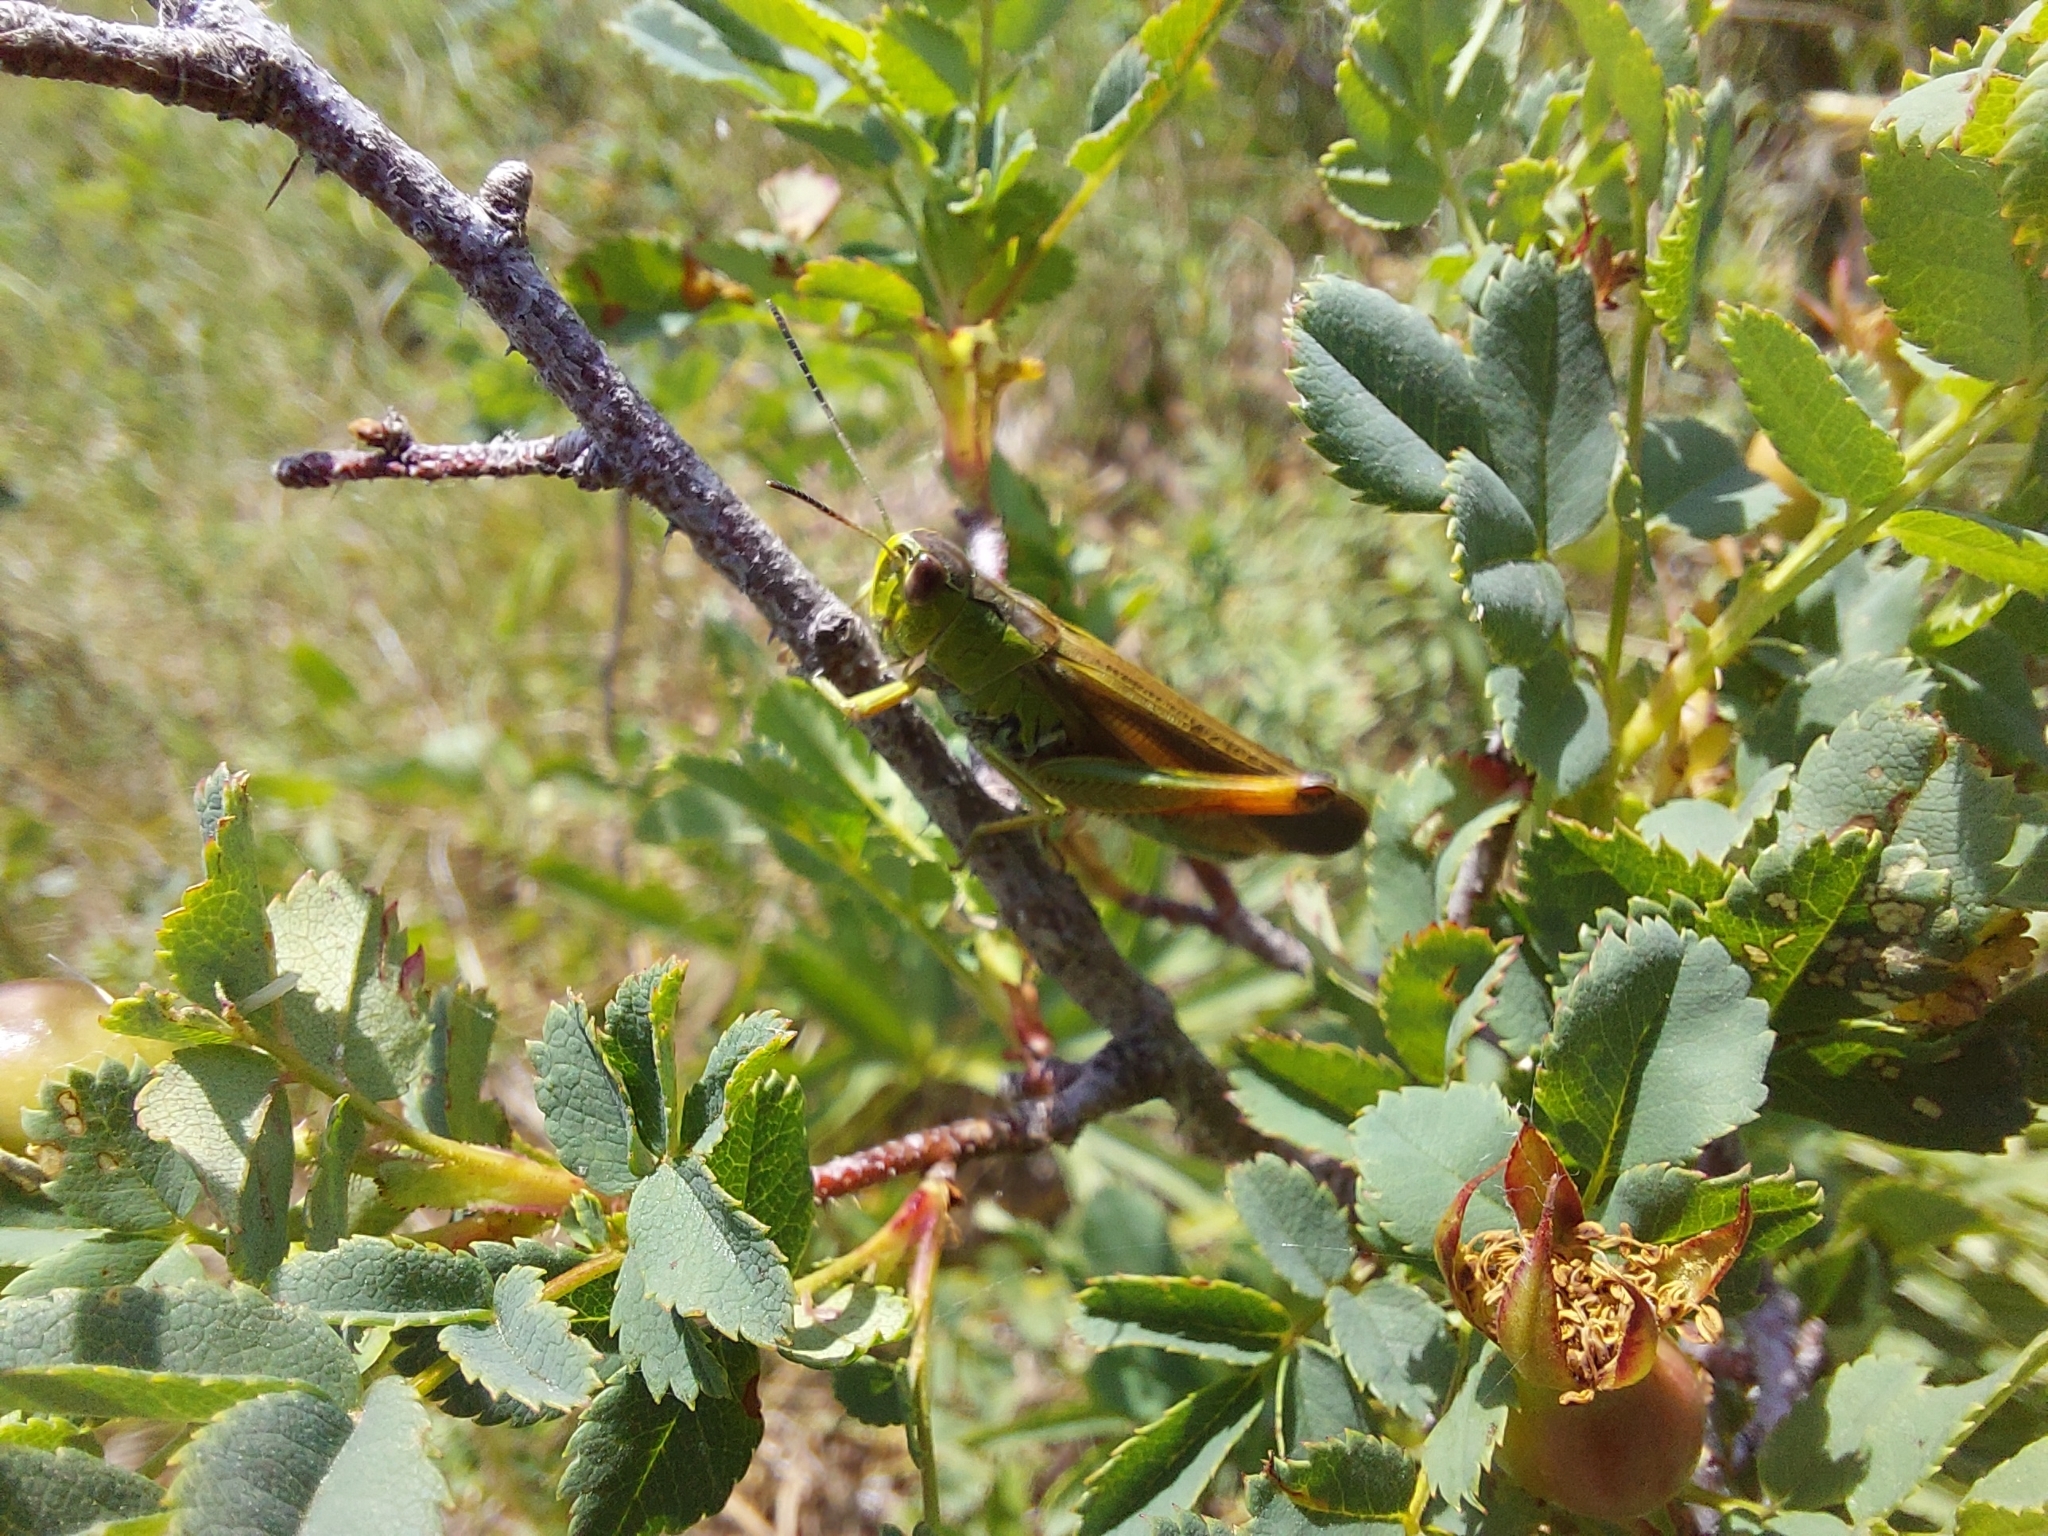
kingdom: Animalia
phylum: Arthropoda
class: Insecta
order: Orthoptera
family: Acrididae
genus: Stauroderus
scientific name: Stauroderus scalaris
